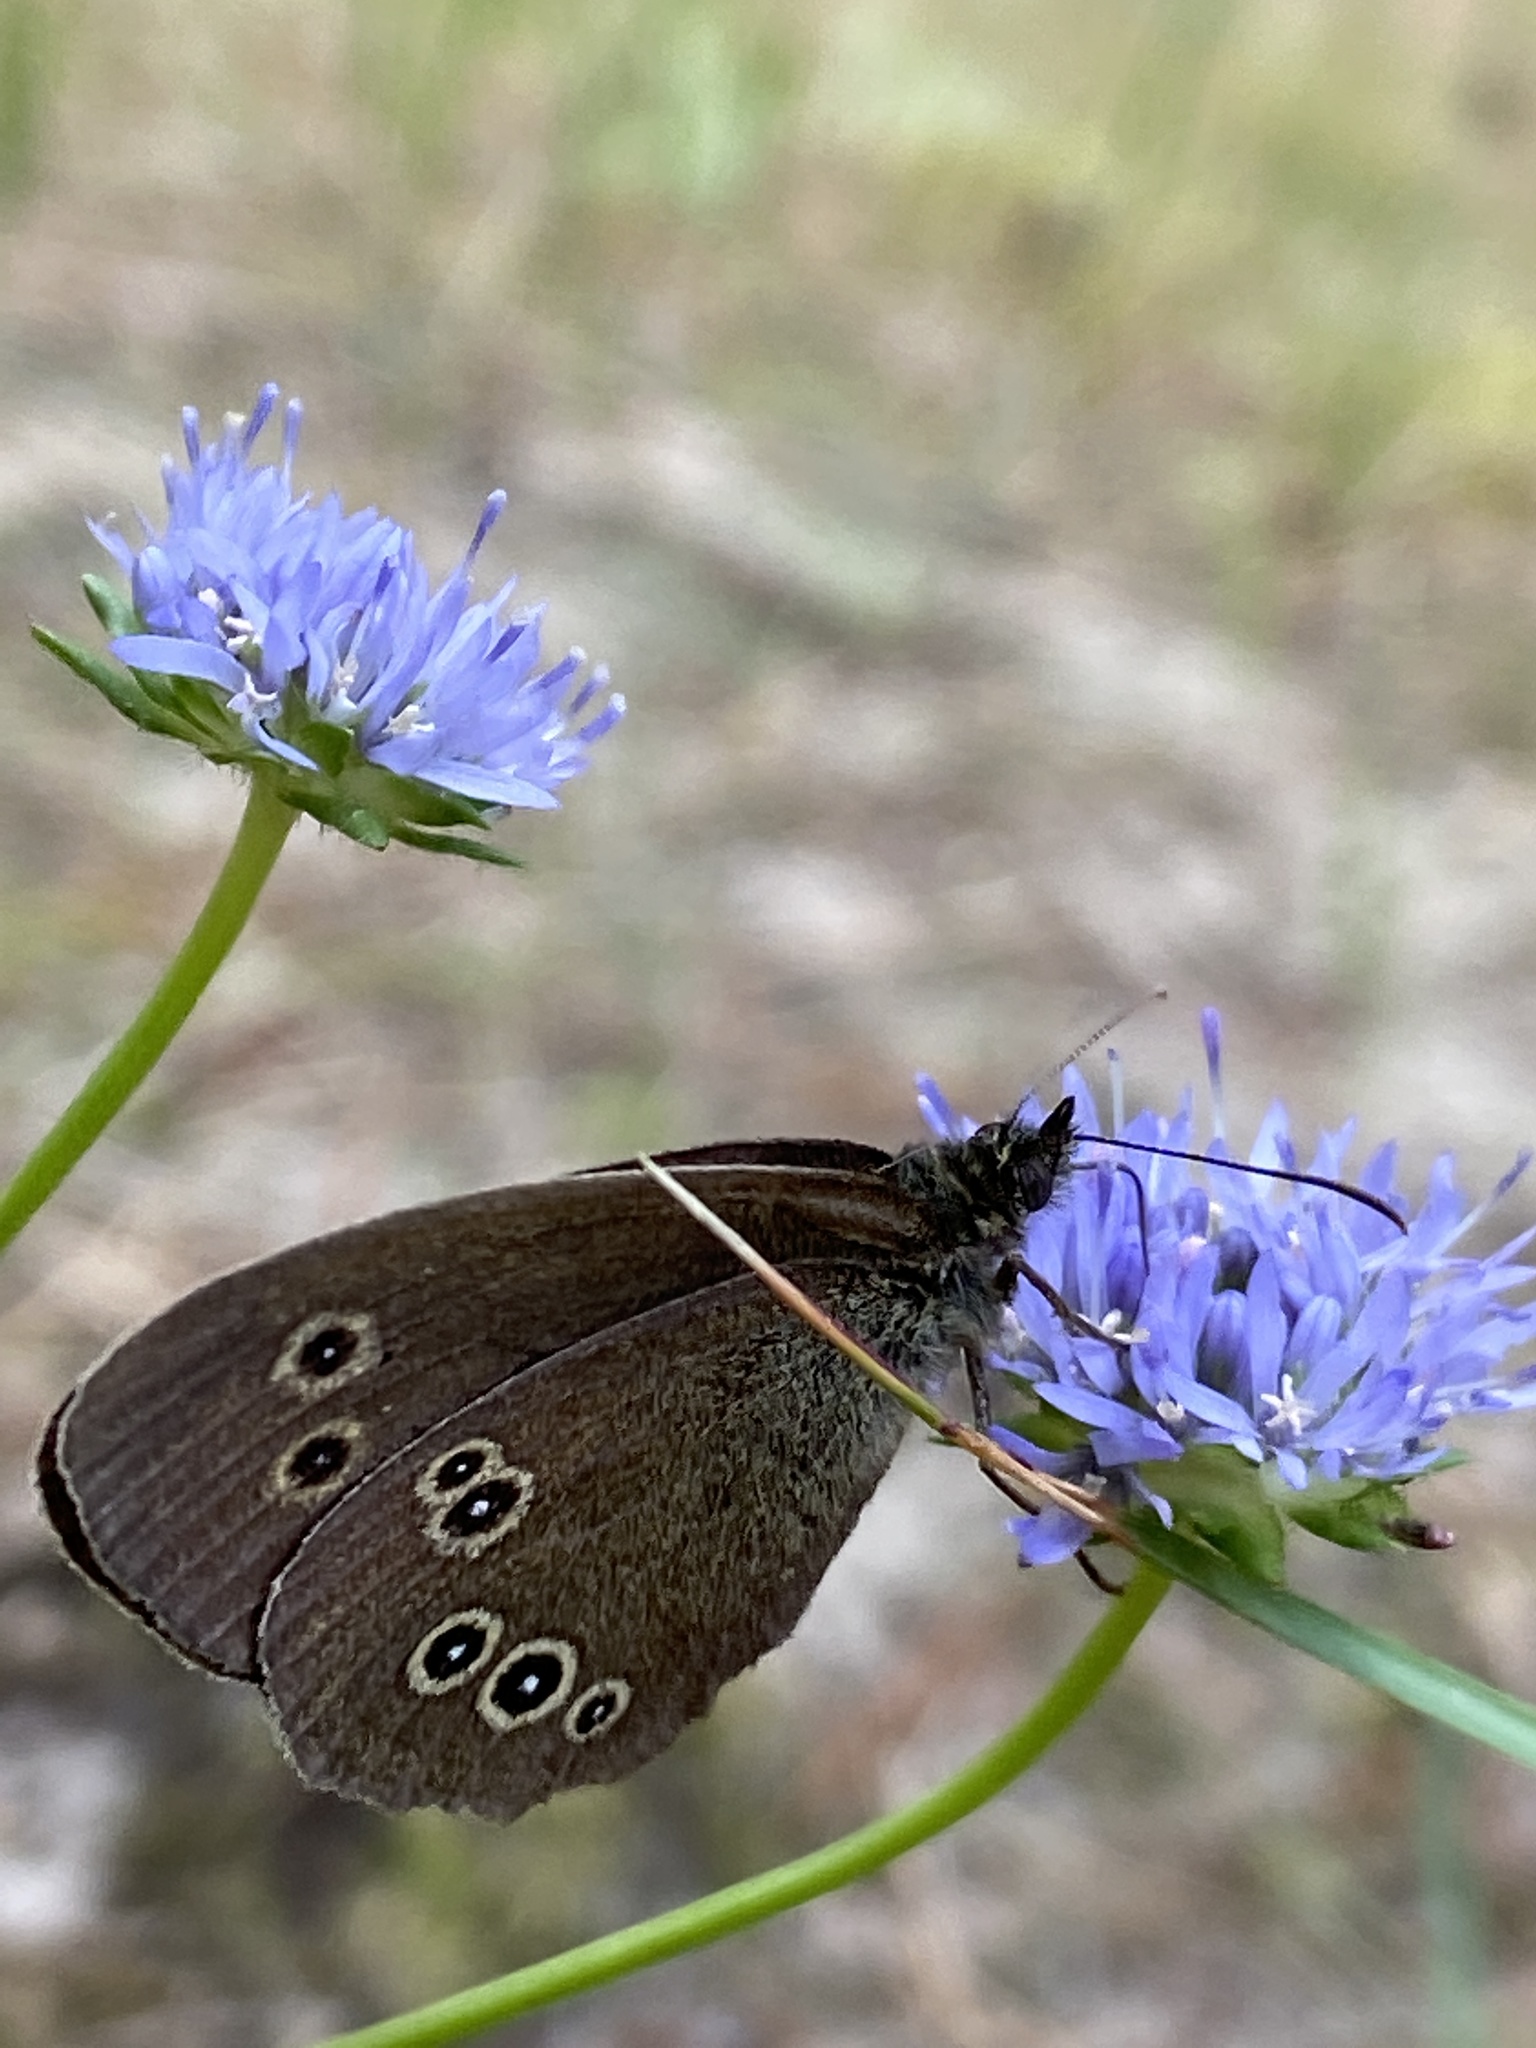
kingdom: Animalia
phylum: Arthropoda
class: Insecta
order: Lepidoptera
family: Nymphalidae
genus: Aphantopus
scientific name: Aphantopus hyperantus
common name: Ringlet
